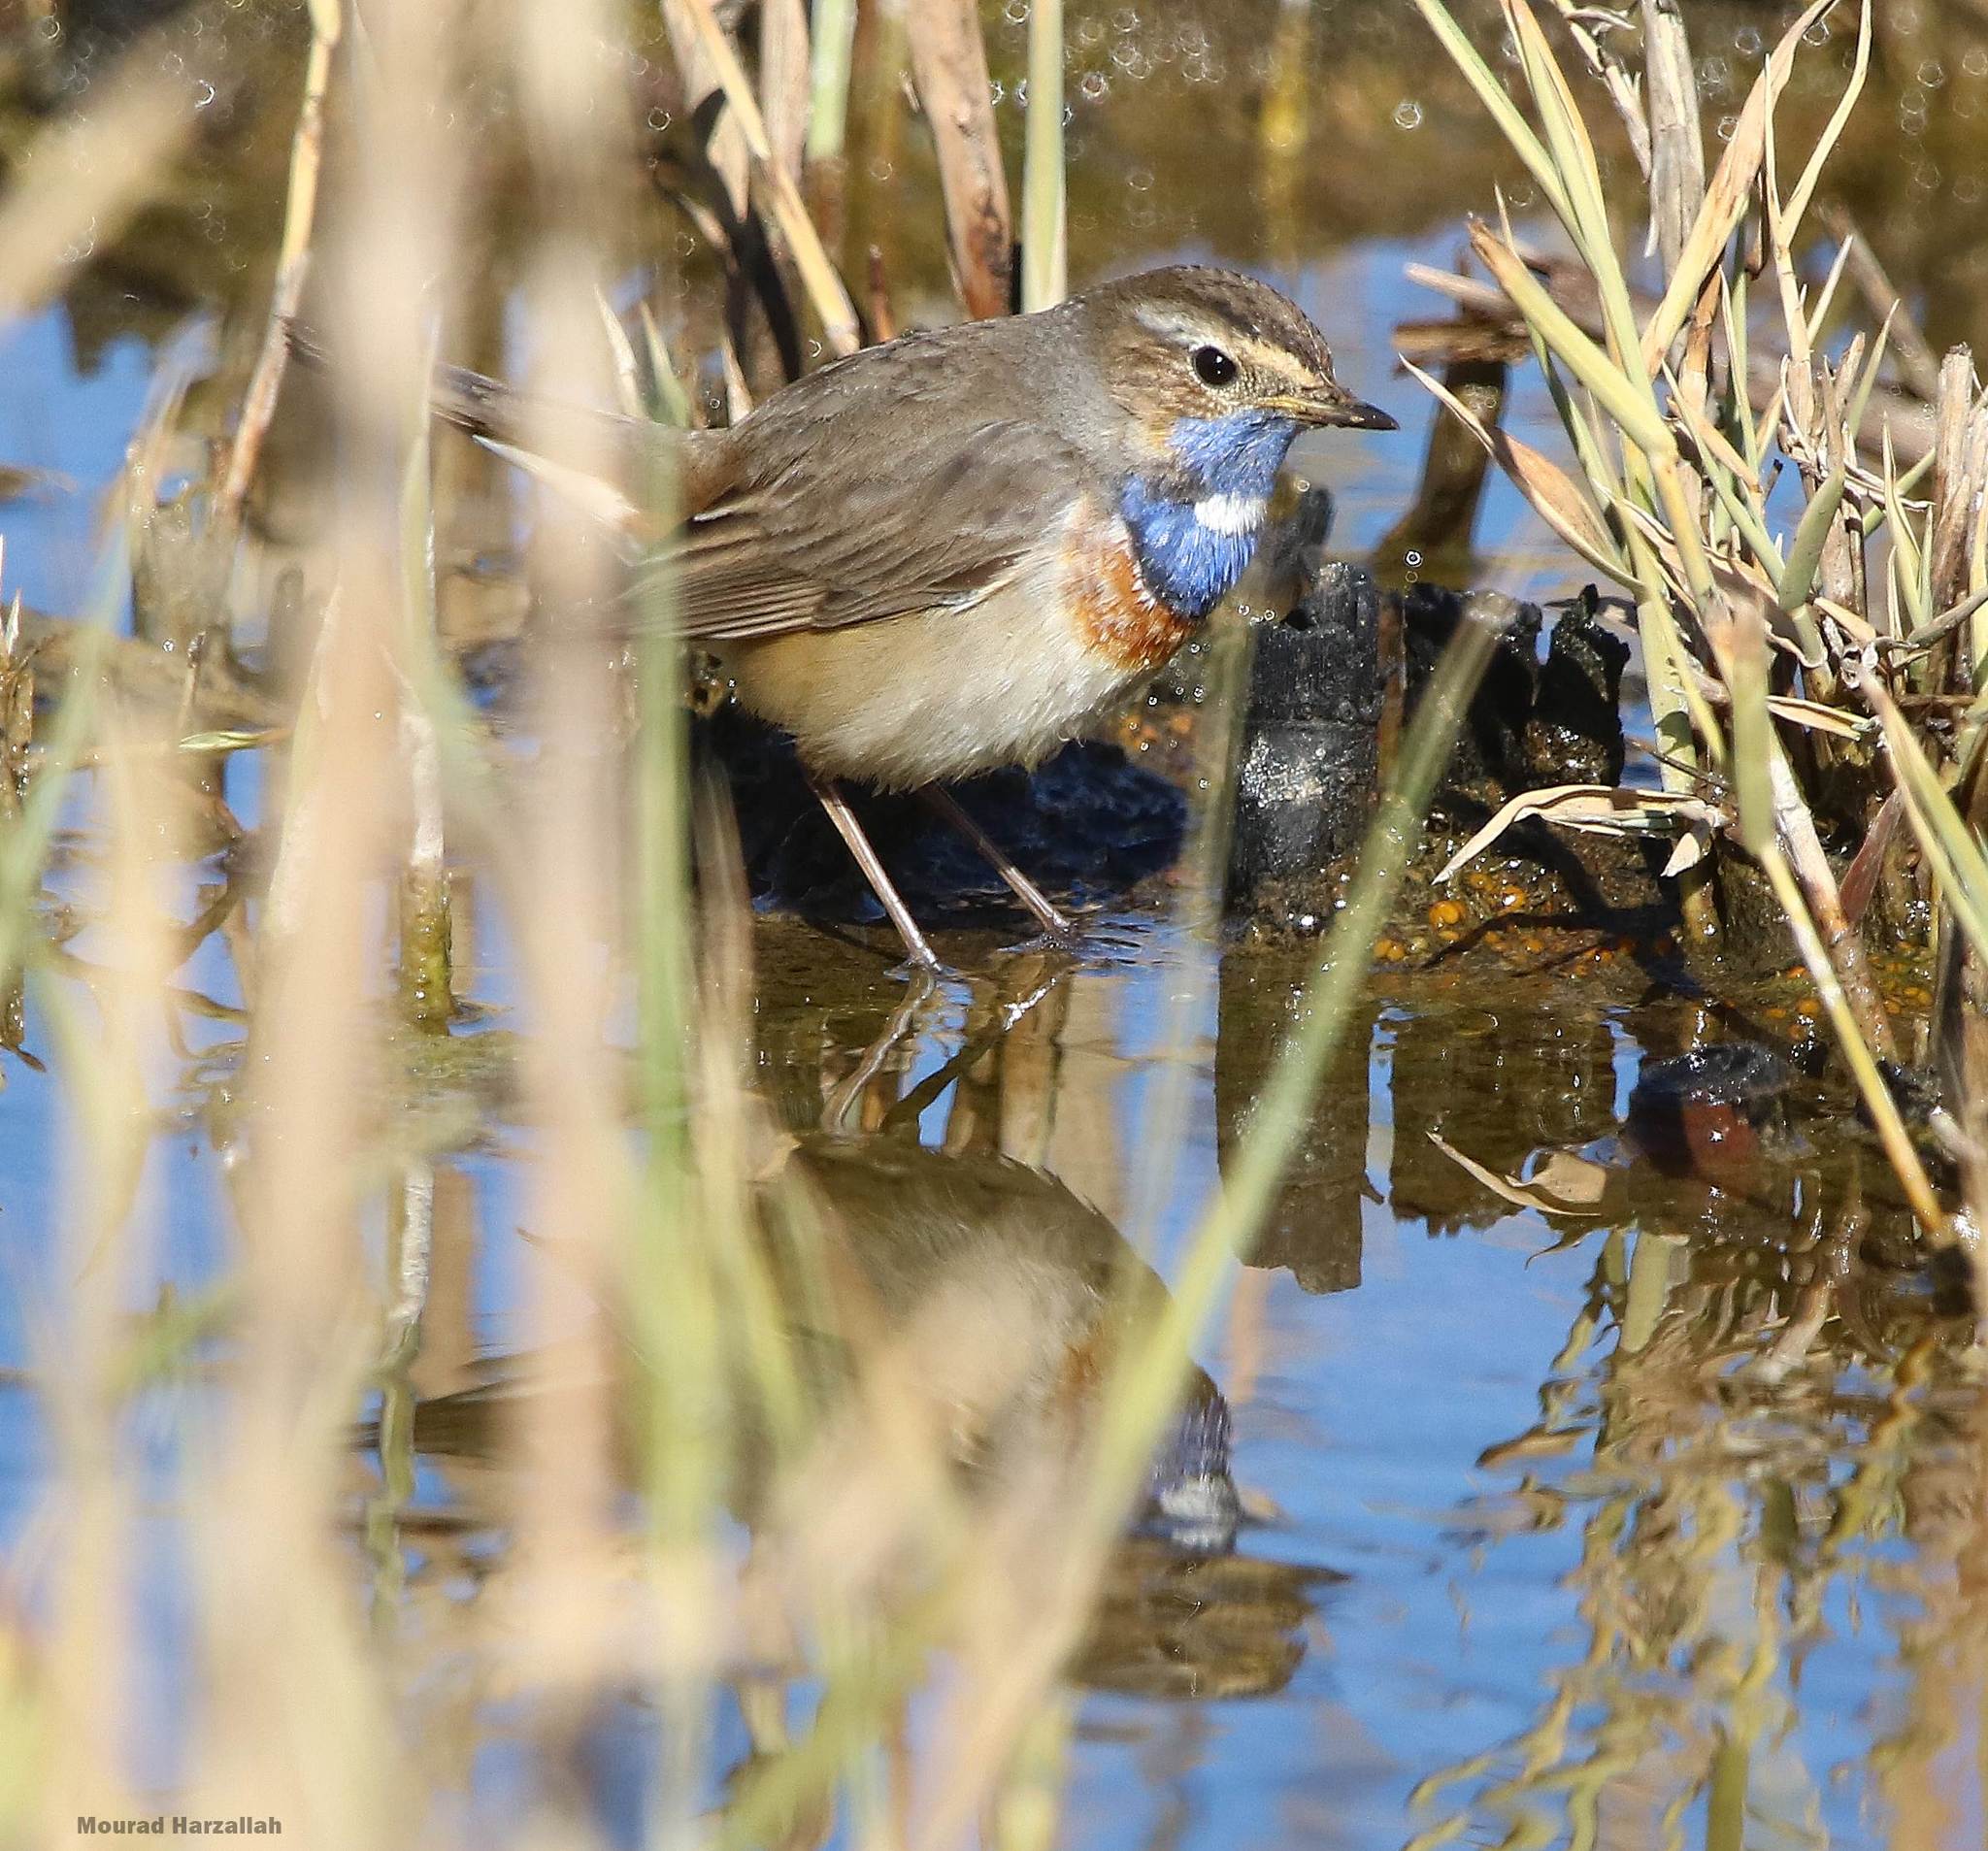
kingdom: Animalia
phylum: Chordata
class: Aves
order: Passeriformes
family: Muscicapidae
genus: Luscinia
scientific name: Luscinia svecica
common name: Bluethroat
